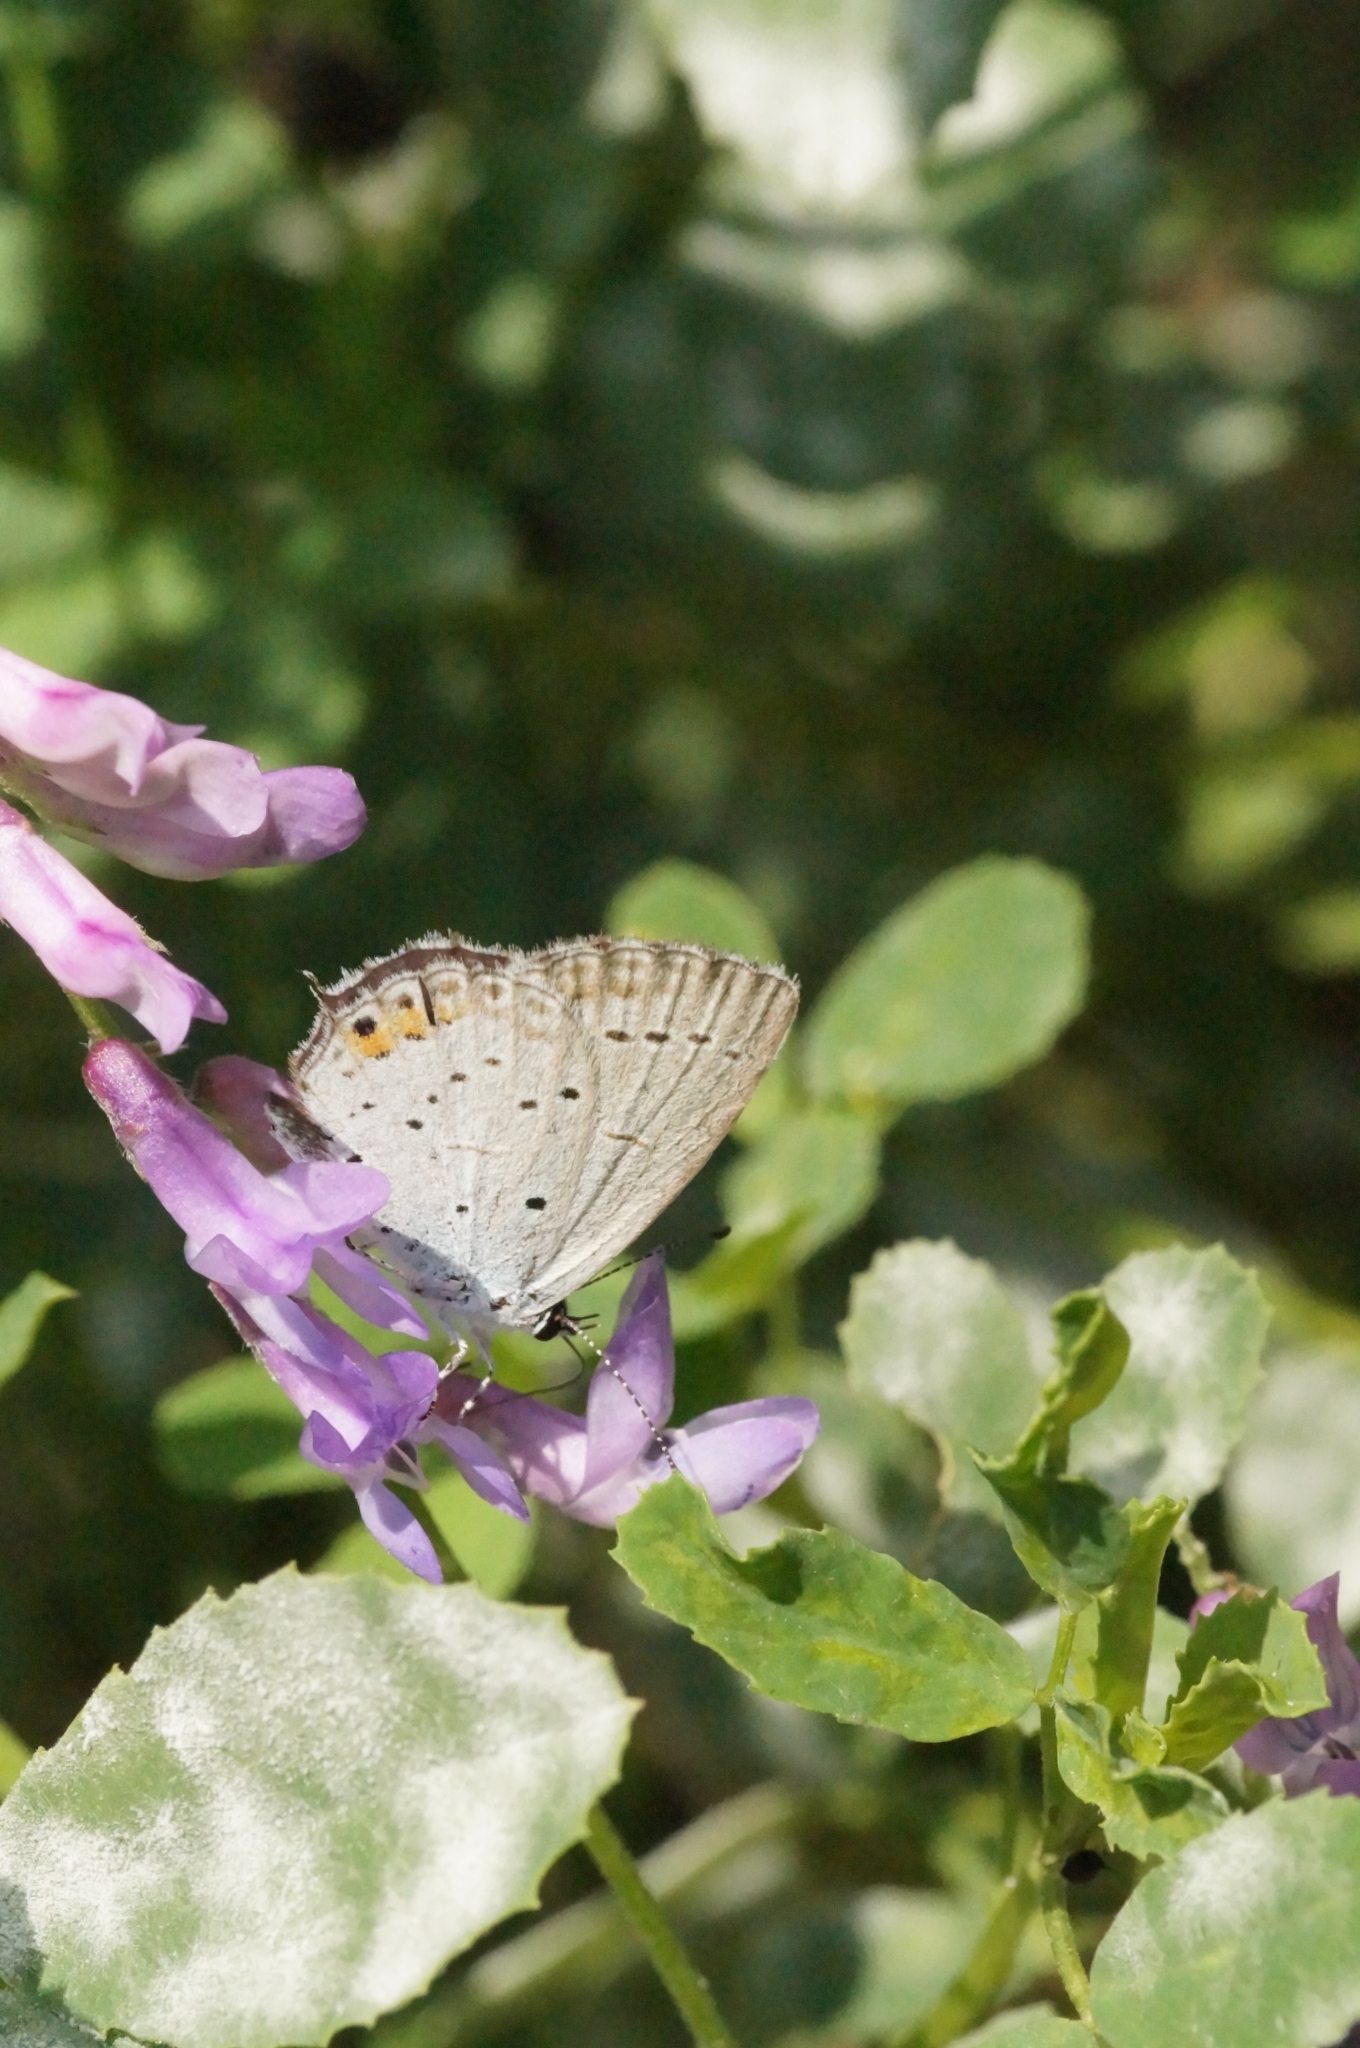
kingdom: Animalia
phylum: Arthropoda
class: Insecta
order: Lepidoptera
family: Lycaenidae
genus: Elkalyce
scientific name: Elkalyce argiades
